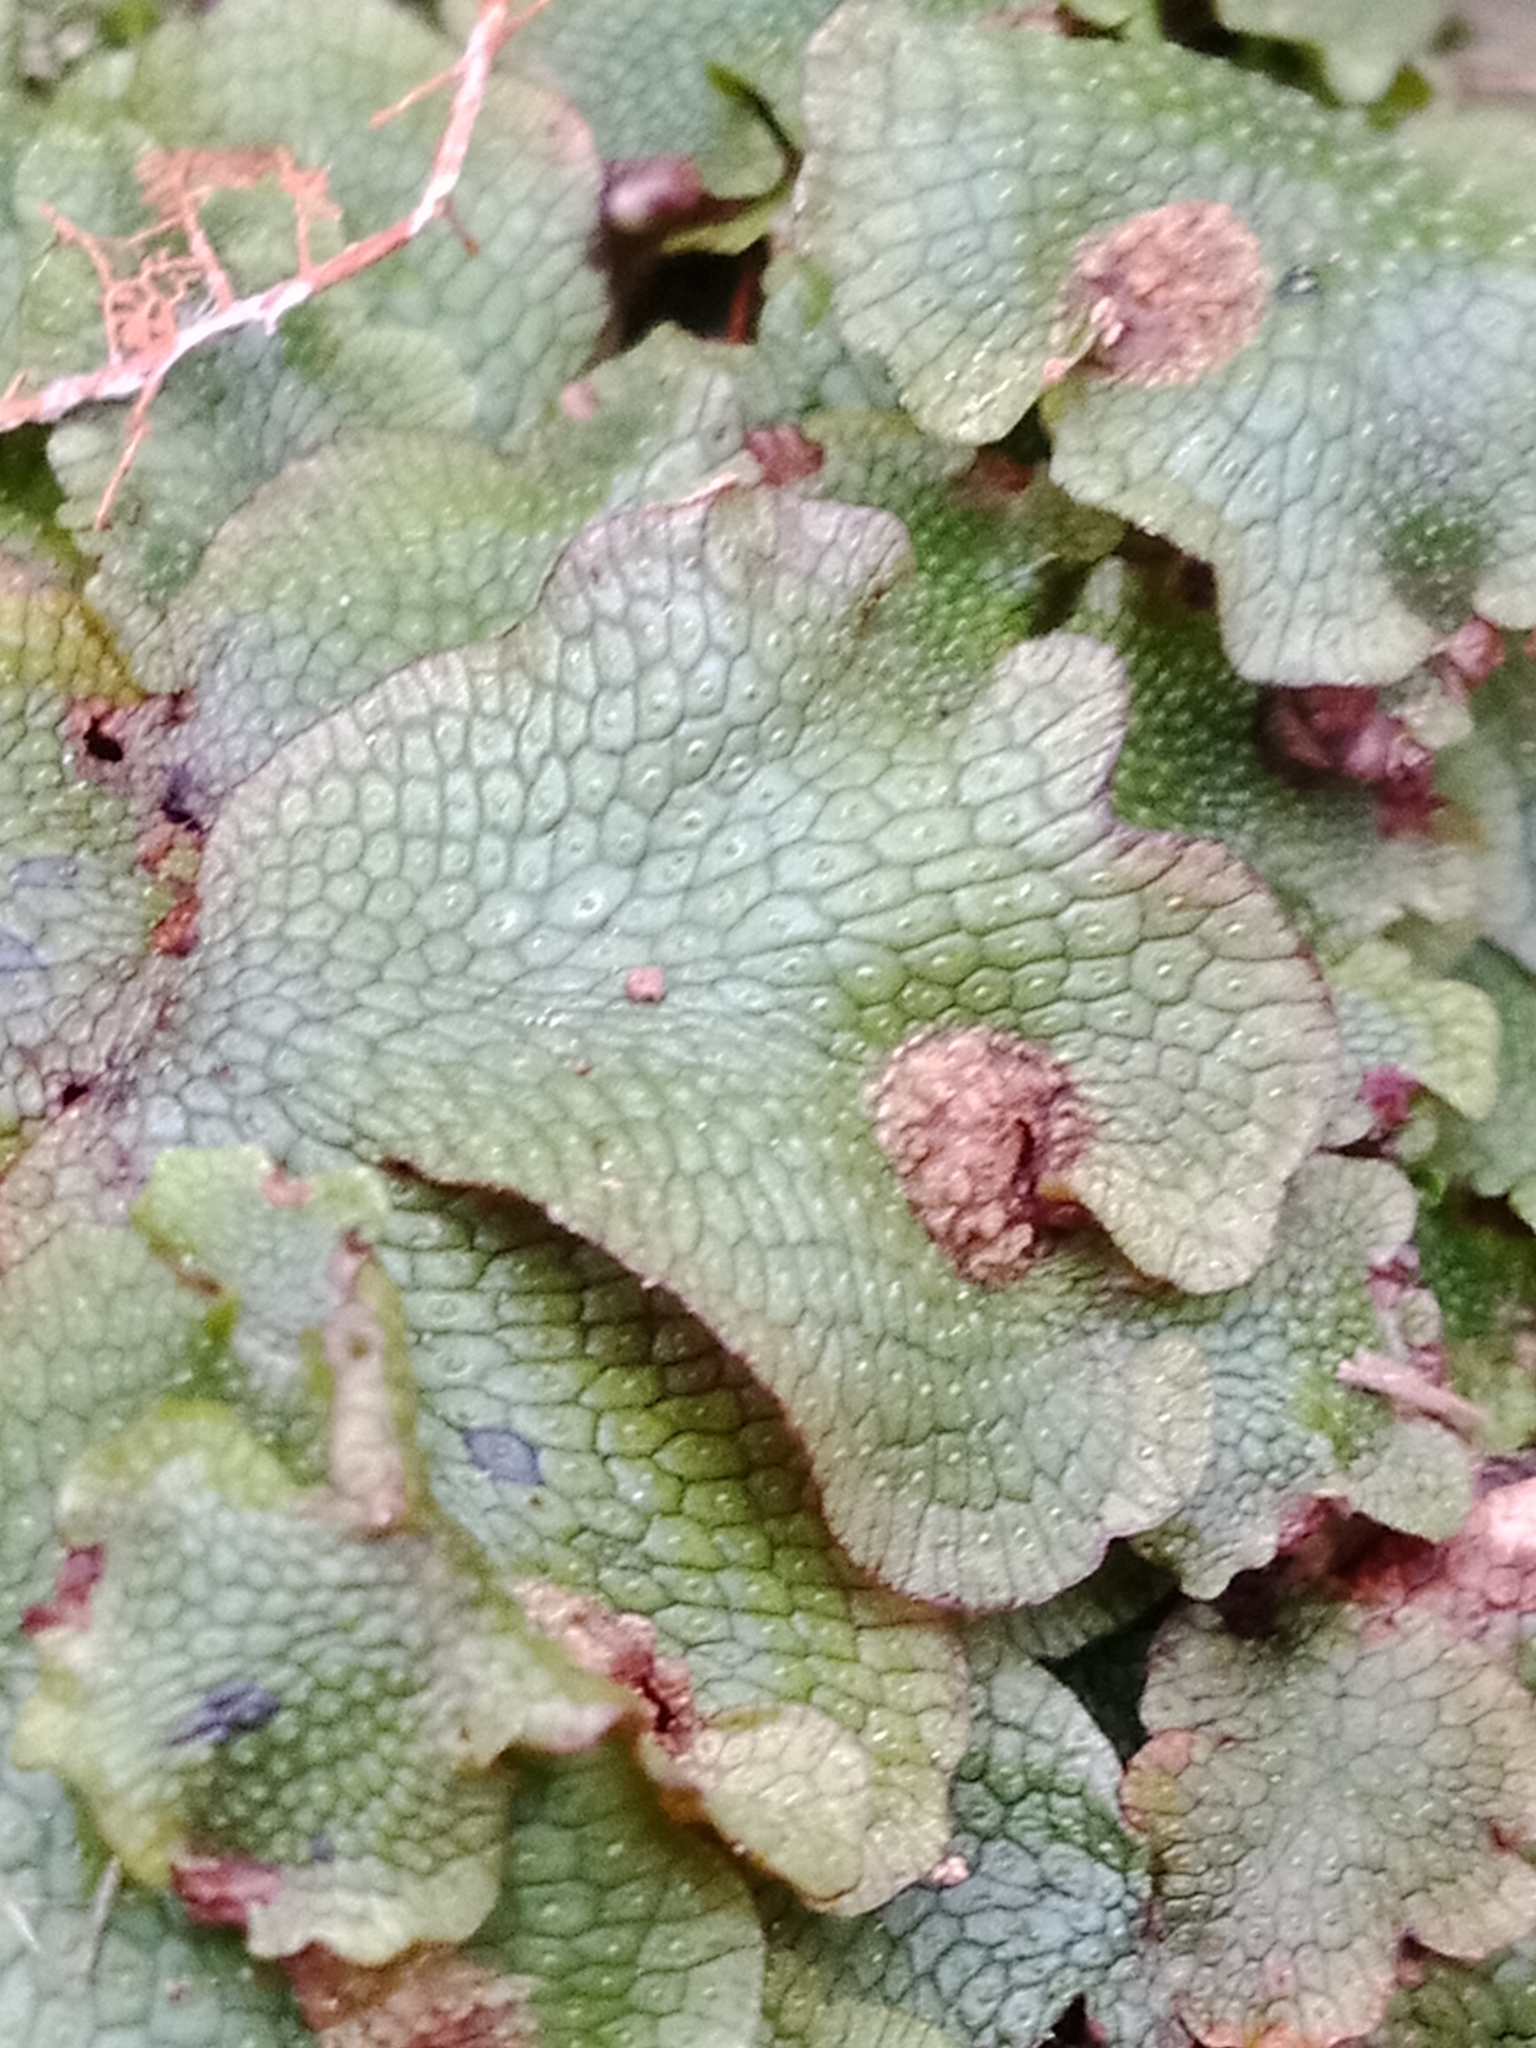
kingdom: Plantae
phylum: Marchantiophyta
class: Marchantiopsida
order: Marchantiales
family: Conocephalaceae
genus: Conocephalum
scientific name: Conocephalum salebrosum
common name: Cat-tongue liverwort
